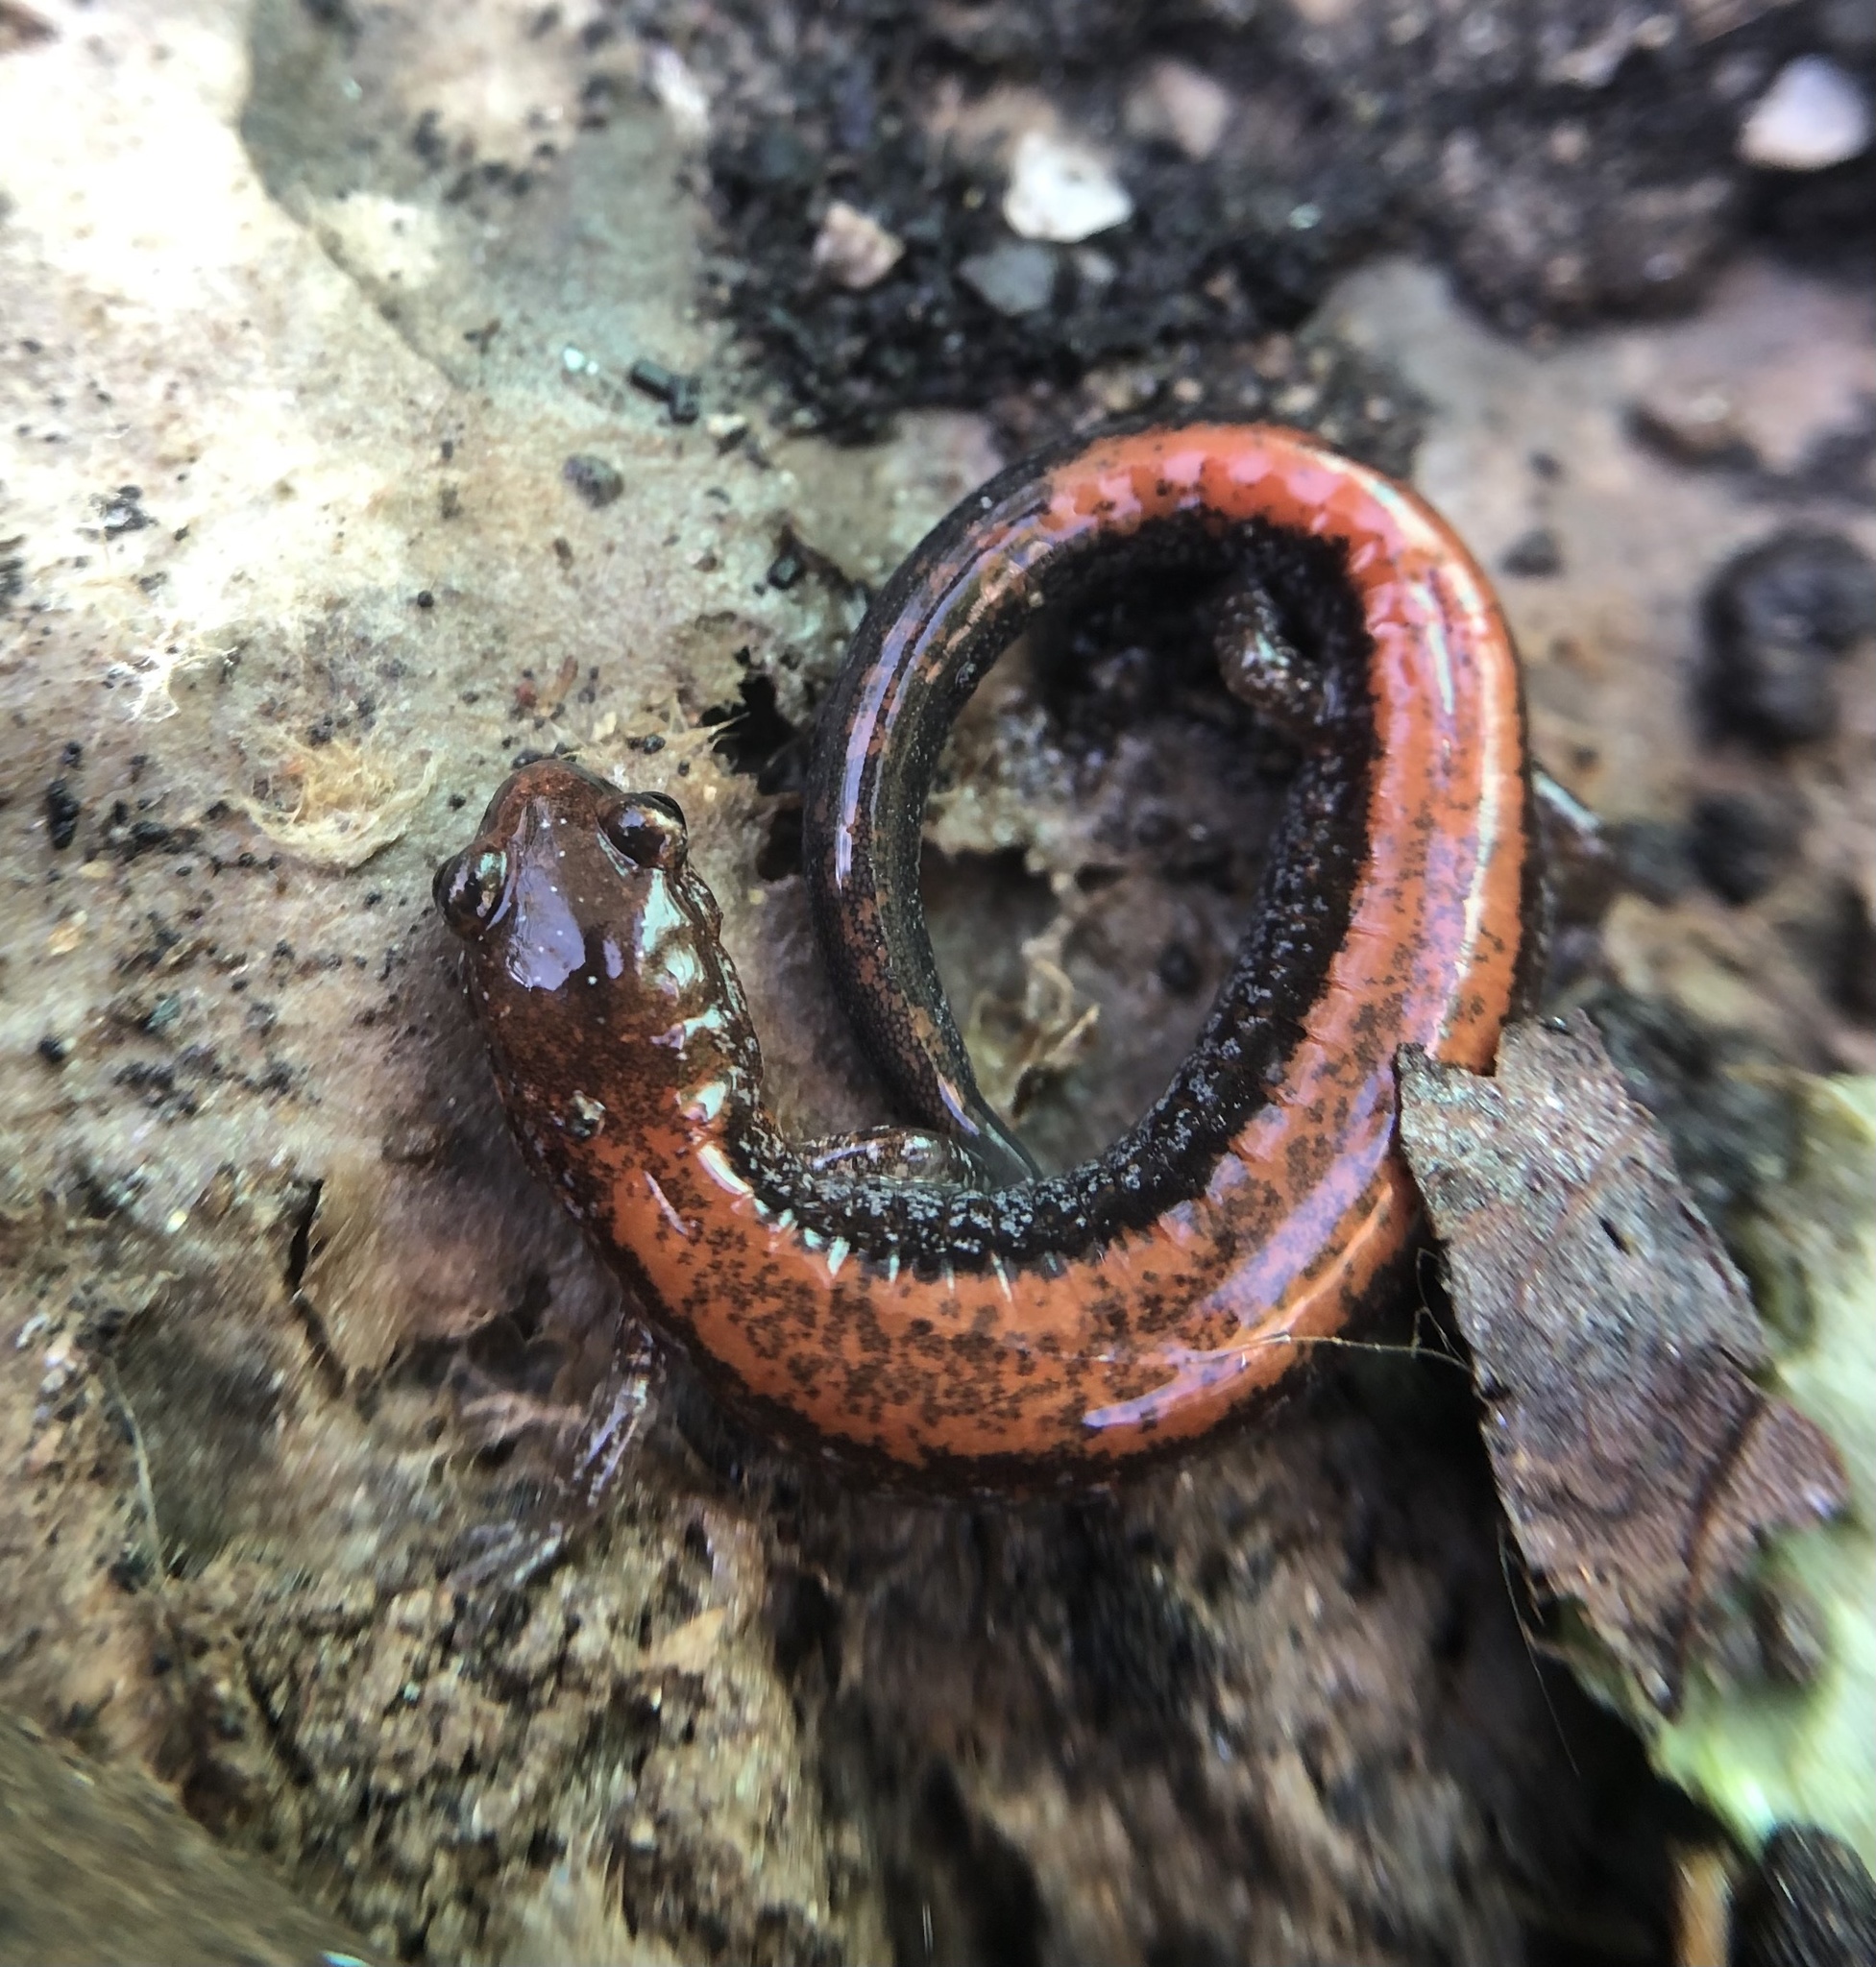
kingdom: Animalia
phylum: Chordata
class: Amphibia
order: Caudata
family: Plethodontidae
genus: Plethodon
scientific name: Plethodon cinereus
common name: Redback salamander
